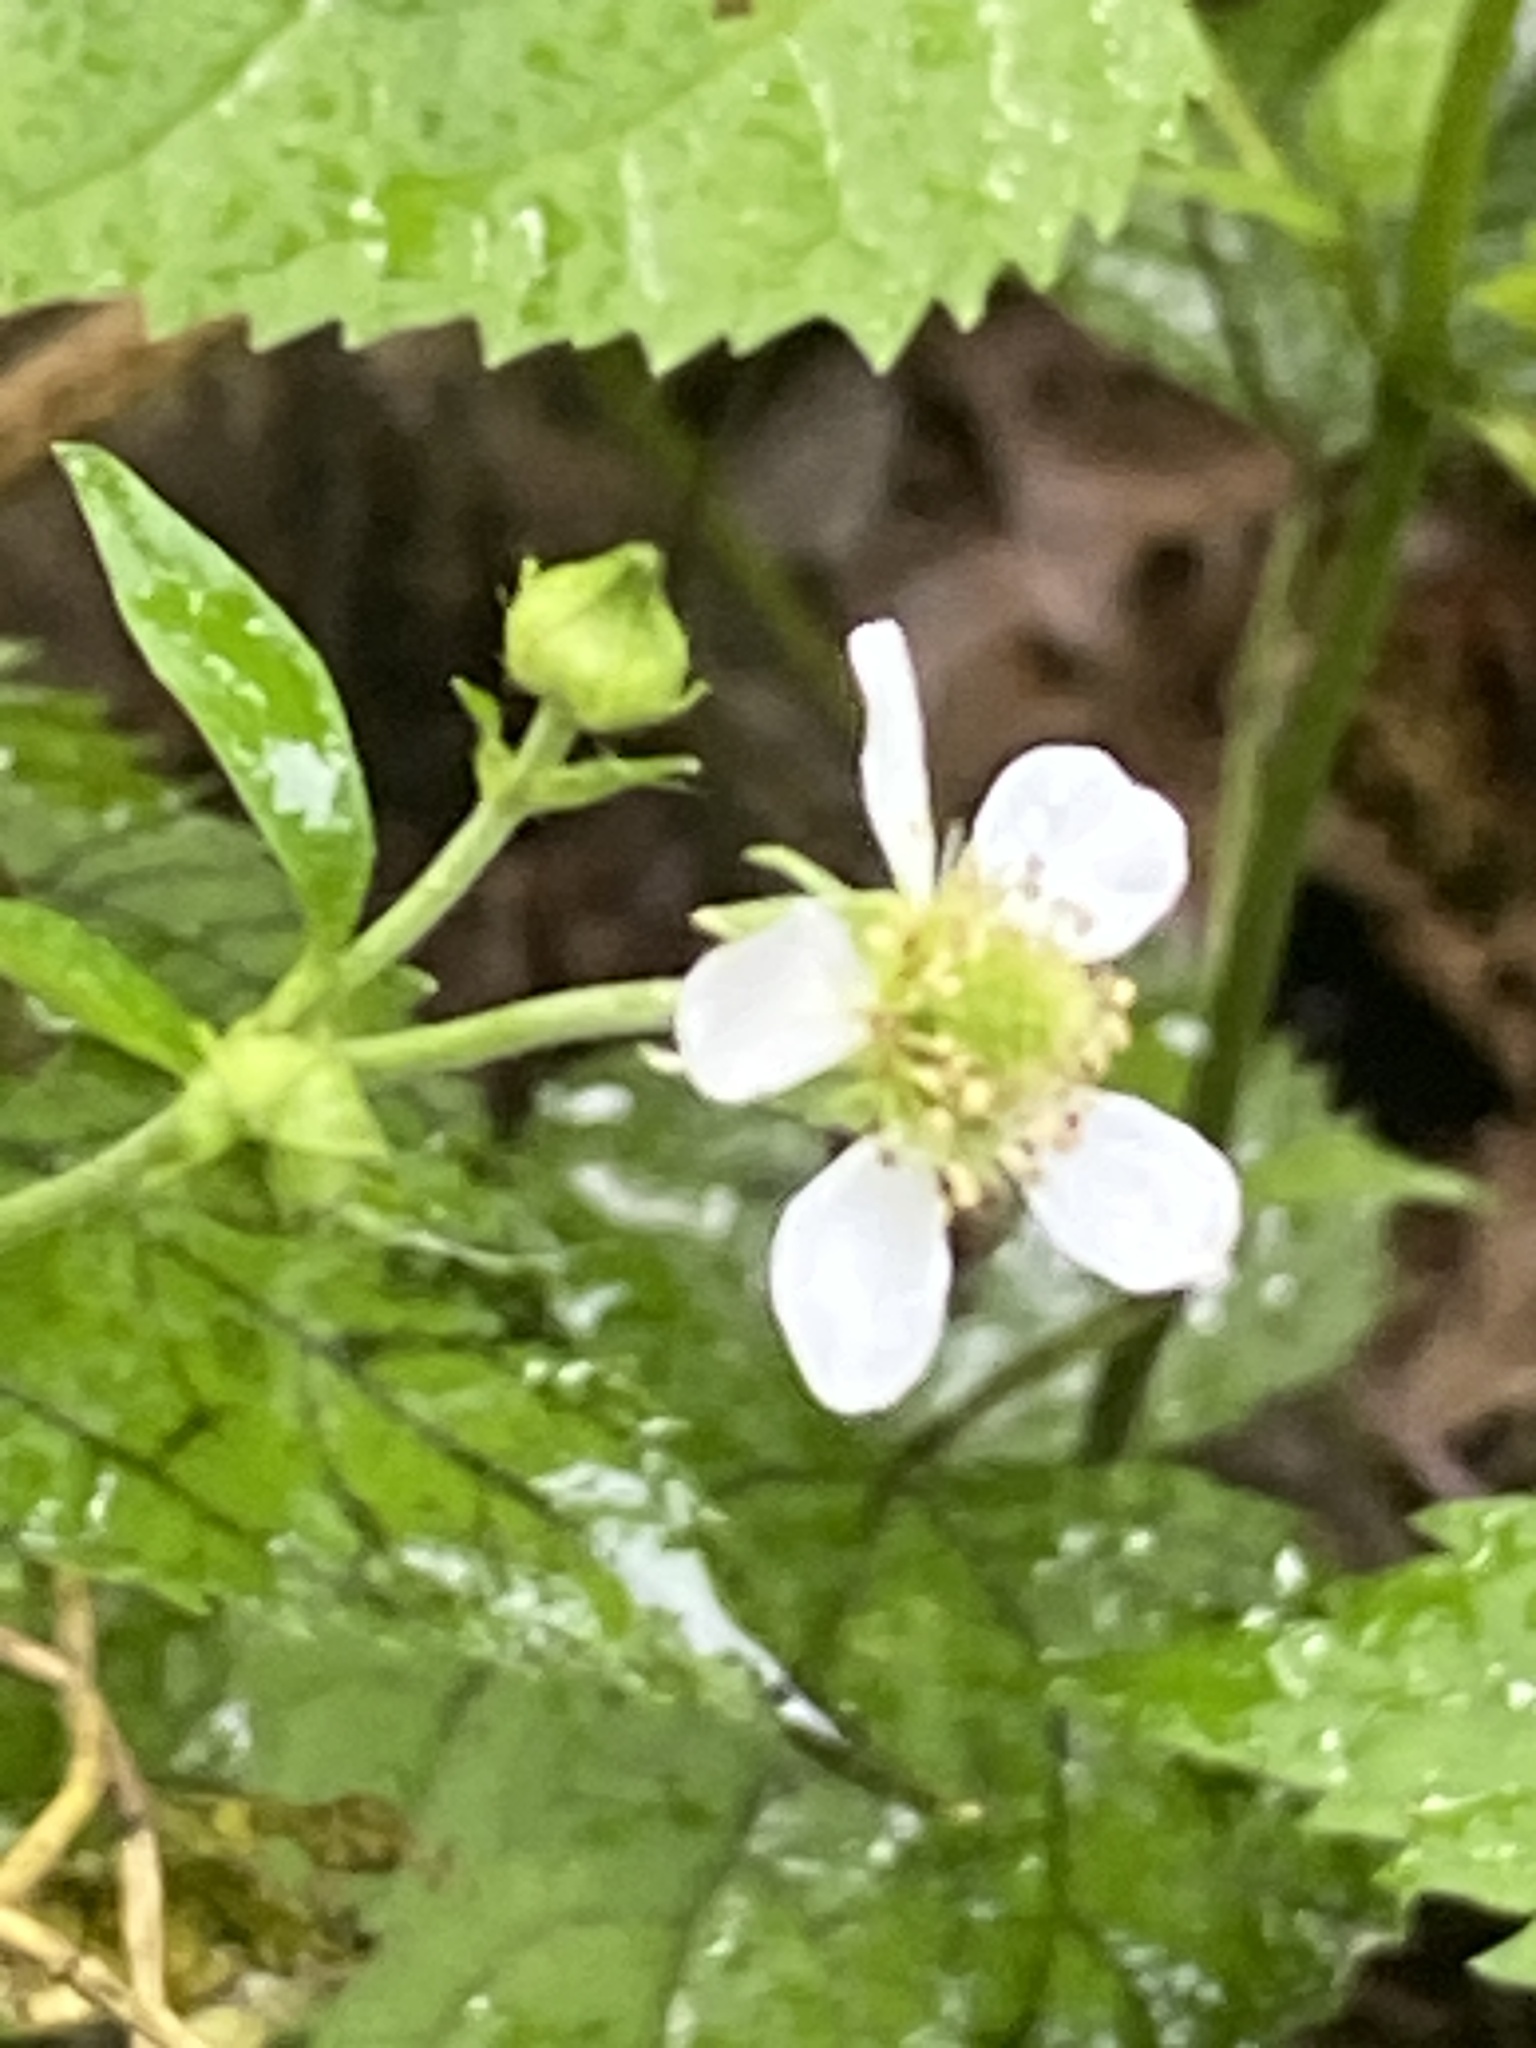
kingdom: Plantae
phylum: Tracheophyta
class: Magnoliopsida
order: Rosales
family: Rosaceae
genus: Geum
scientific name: Geum canadense
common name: White avens
